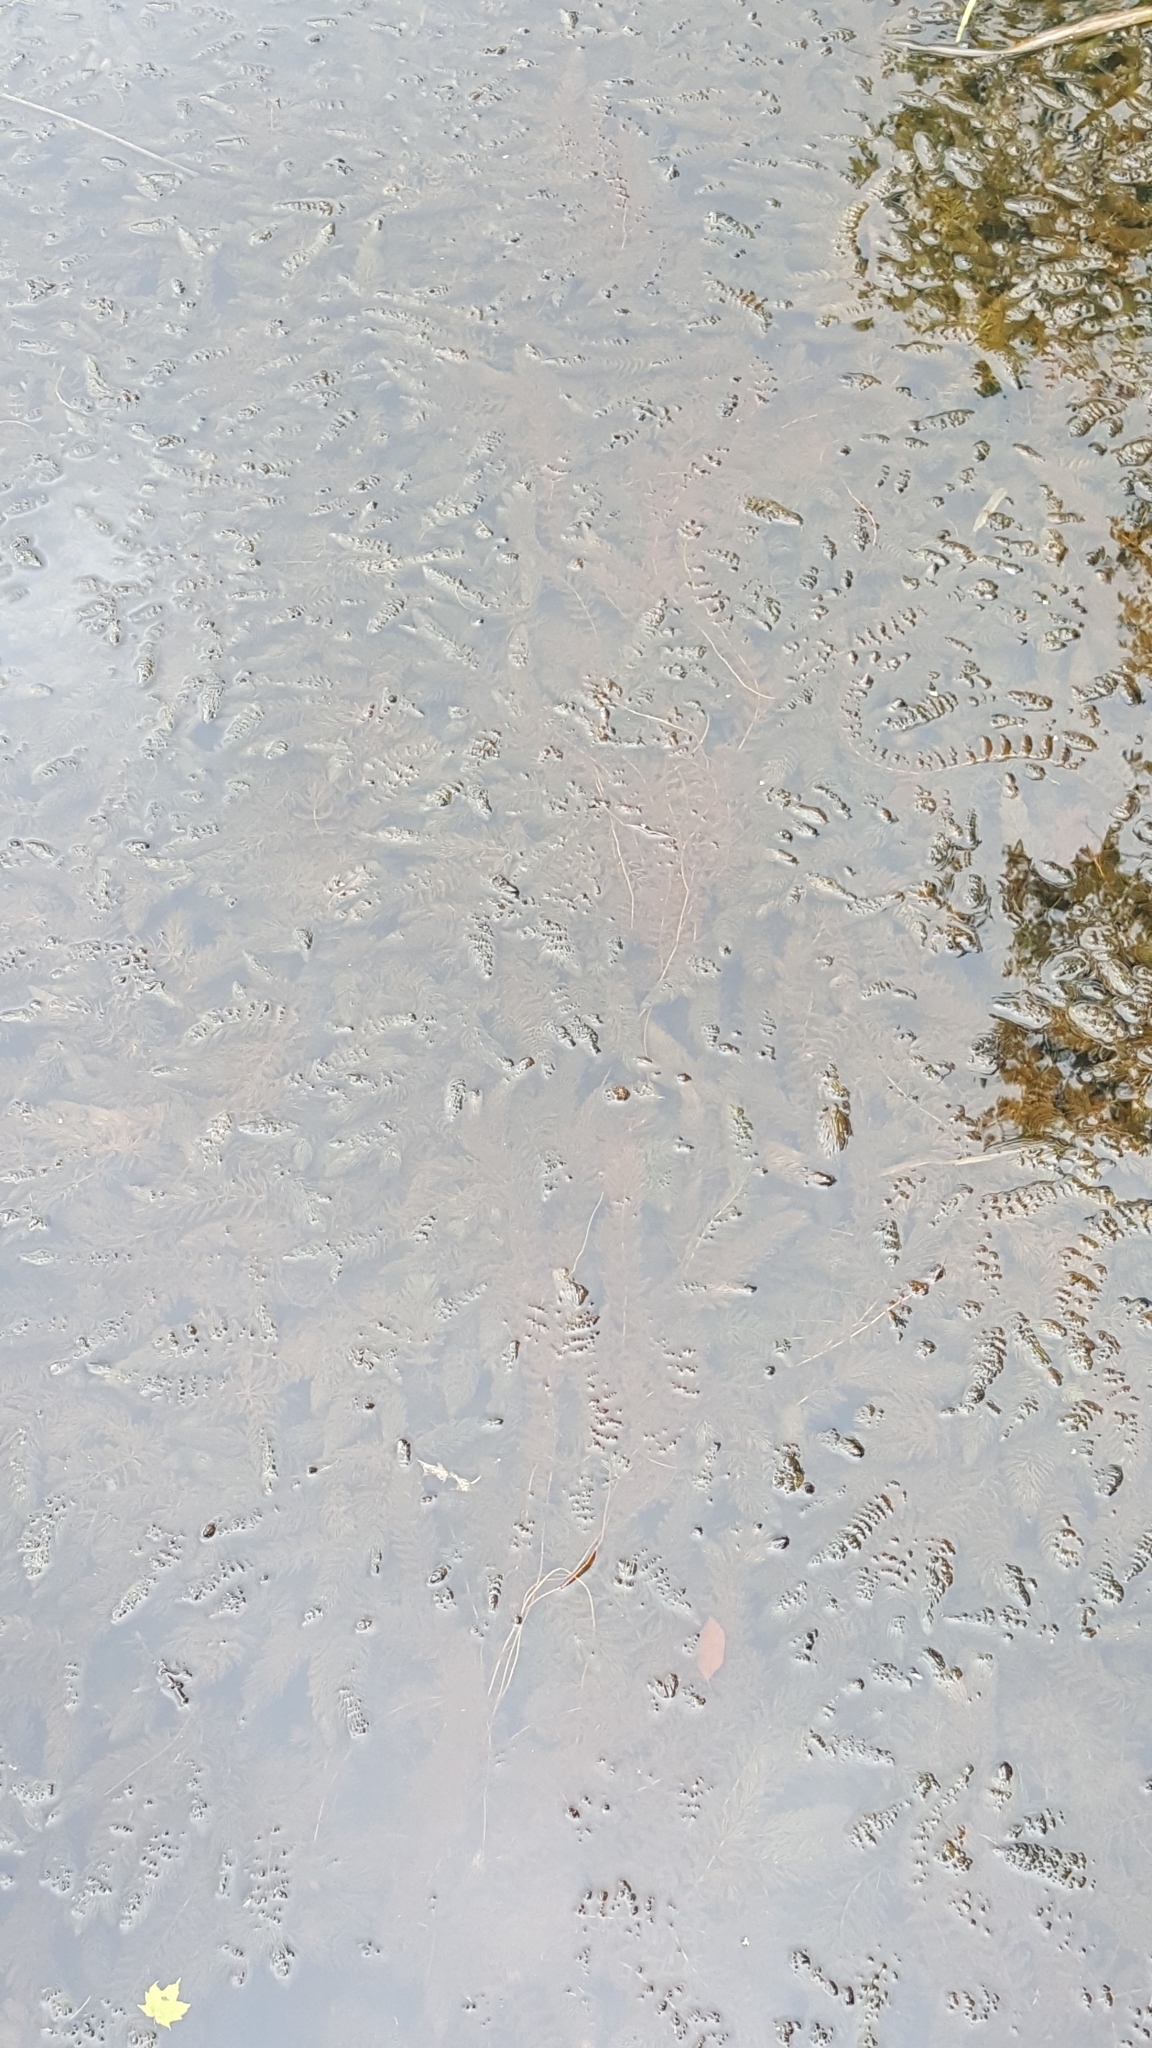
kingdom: Plantae
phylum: Tracheophyta
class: Magnoliopsida
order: Ceratophyllales
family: Ceratophyllaceae
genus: Ceratophyllum
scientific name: Ceratophyllum demersum
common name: Rigid hornwort
